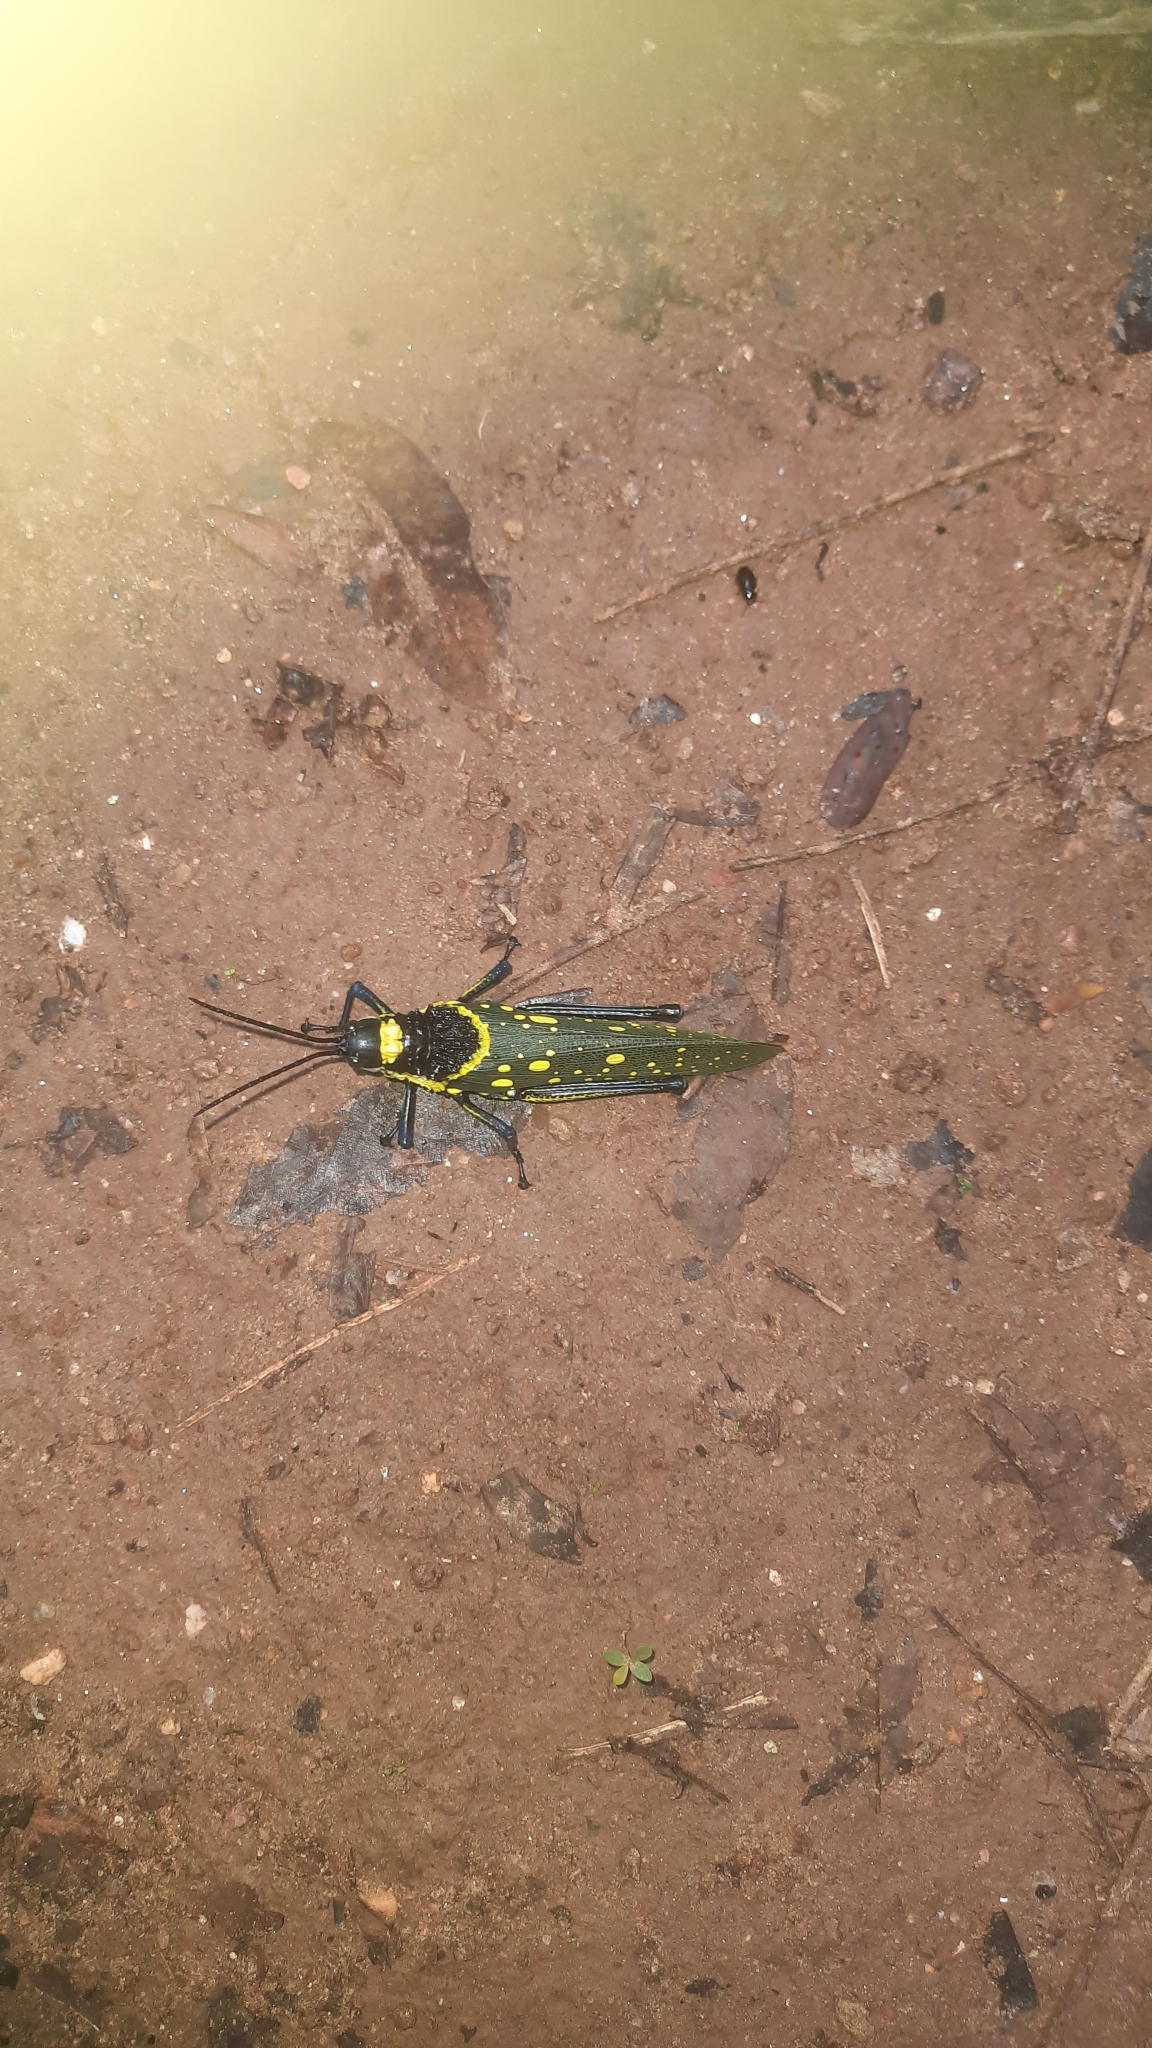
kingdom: Animalia
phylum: Arthropoda
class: Insecta
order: Orthoptera
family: Pyrgomorphidae
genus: Aularches
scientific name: Aularches miliaris
